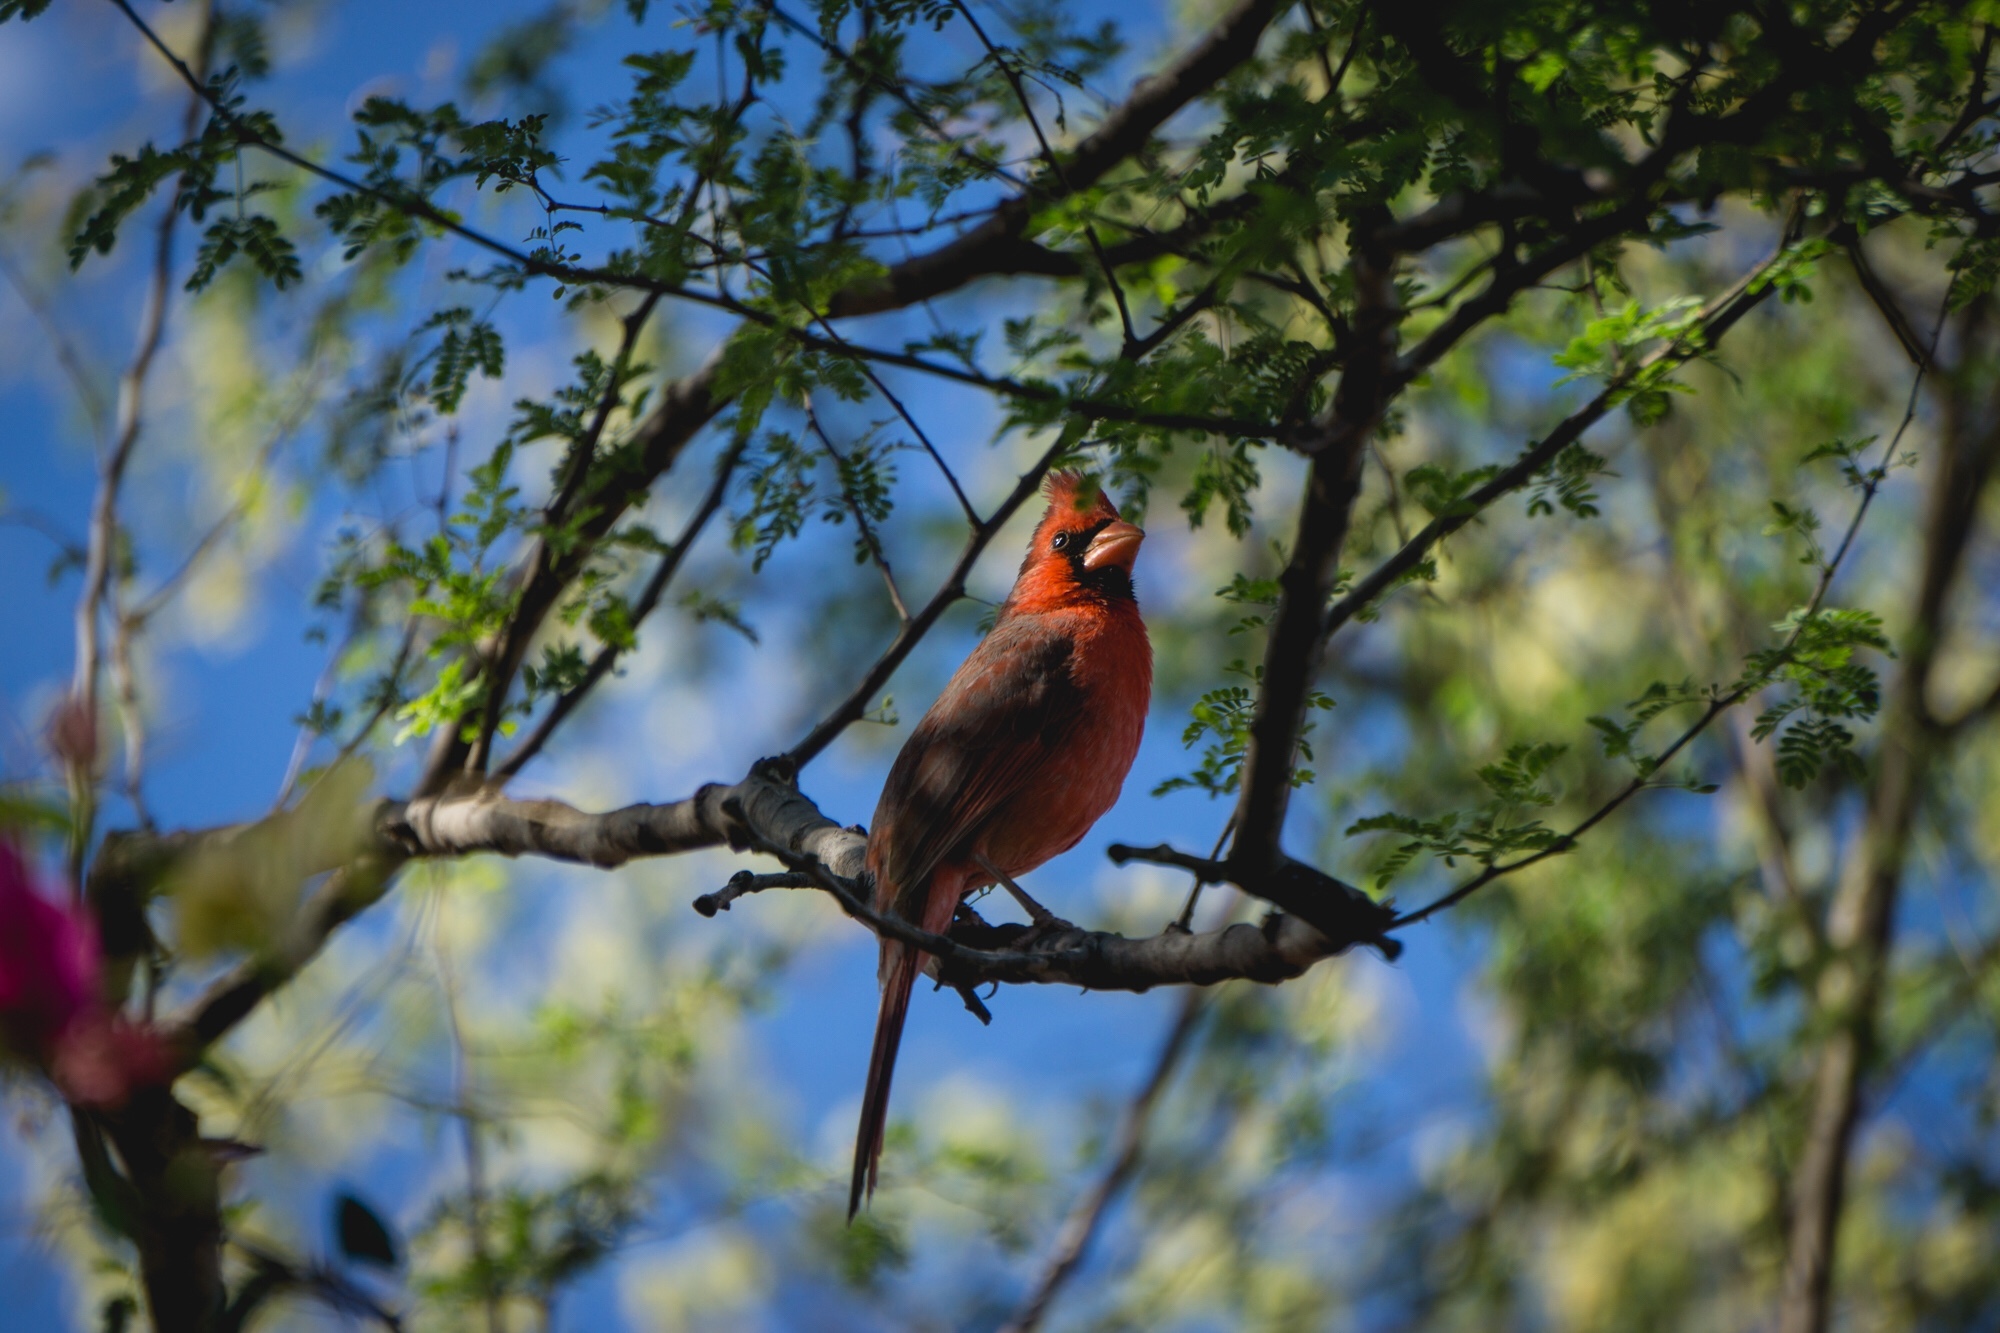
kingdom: Animalia
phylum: Chordata
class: Aves
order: Passeriformes
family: Cardinalidae
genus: Cardinalis
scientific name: Cardinalis cardinalis
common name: Northern cardinal
